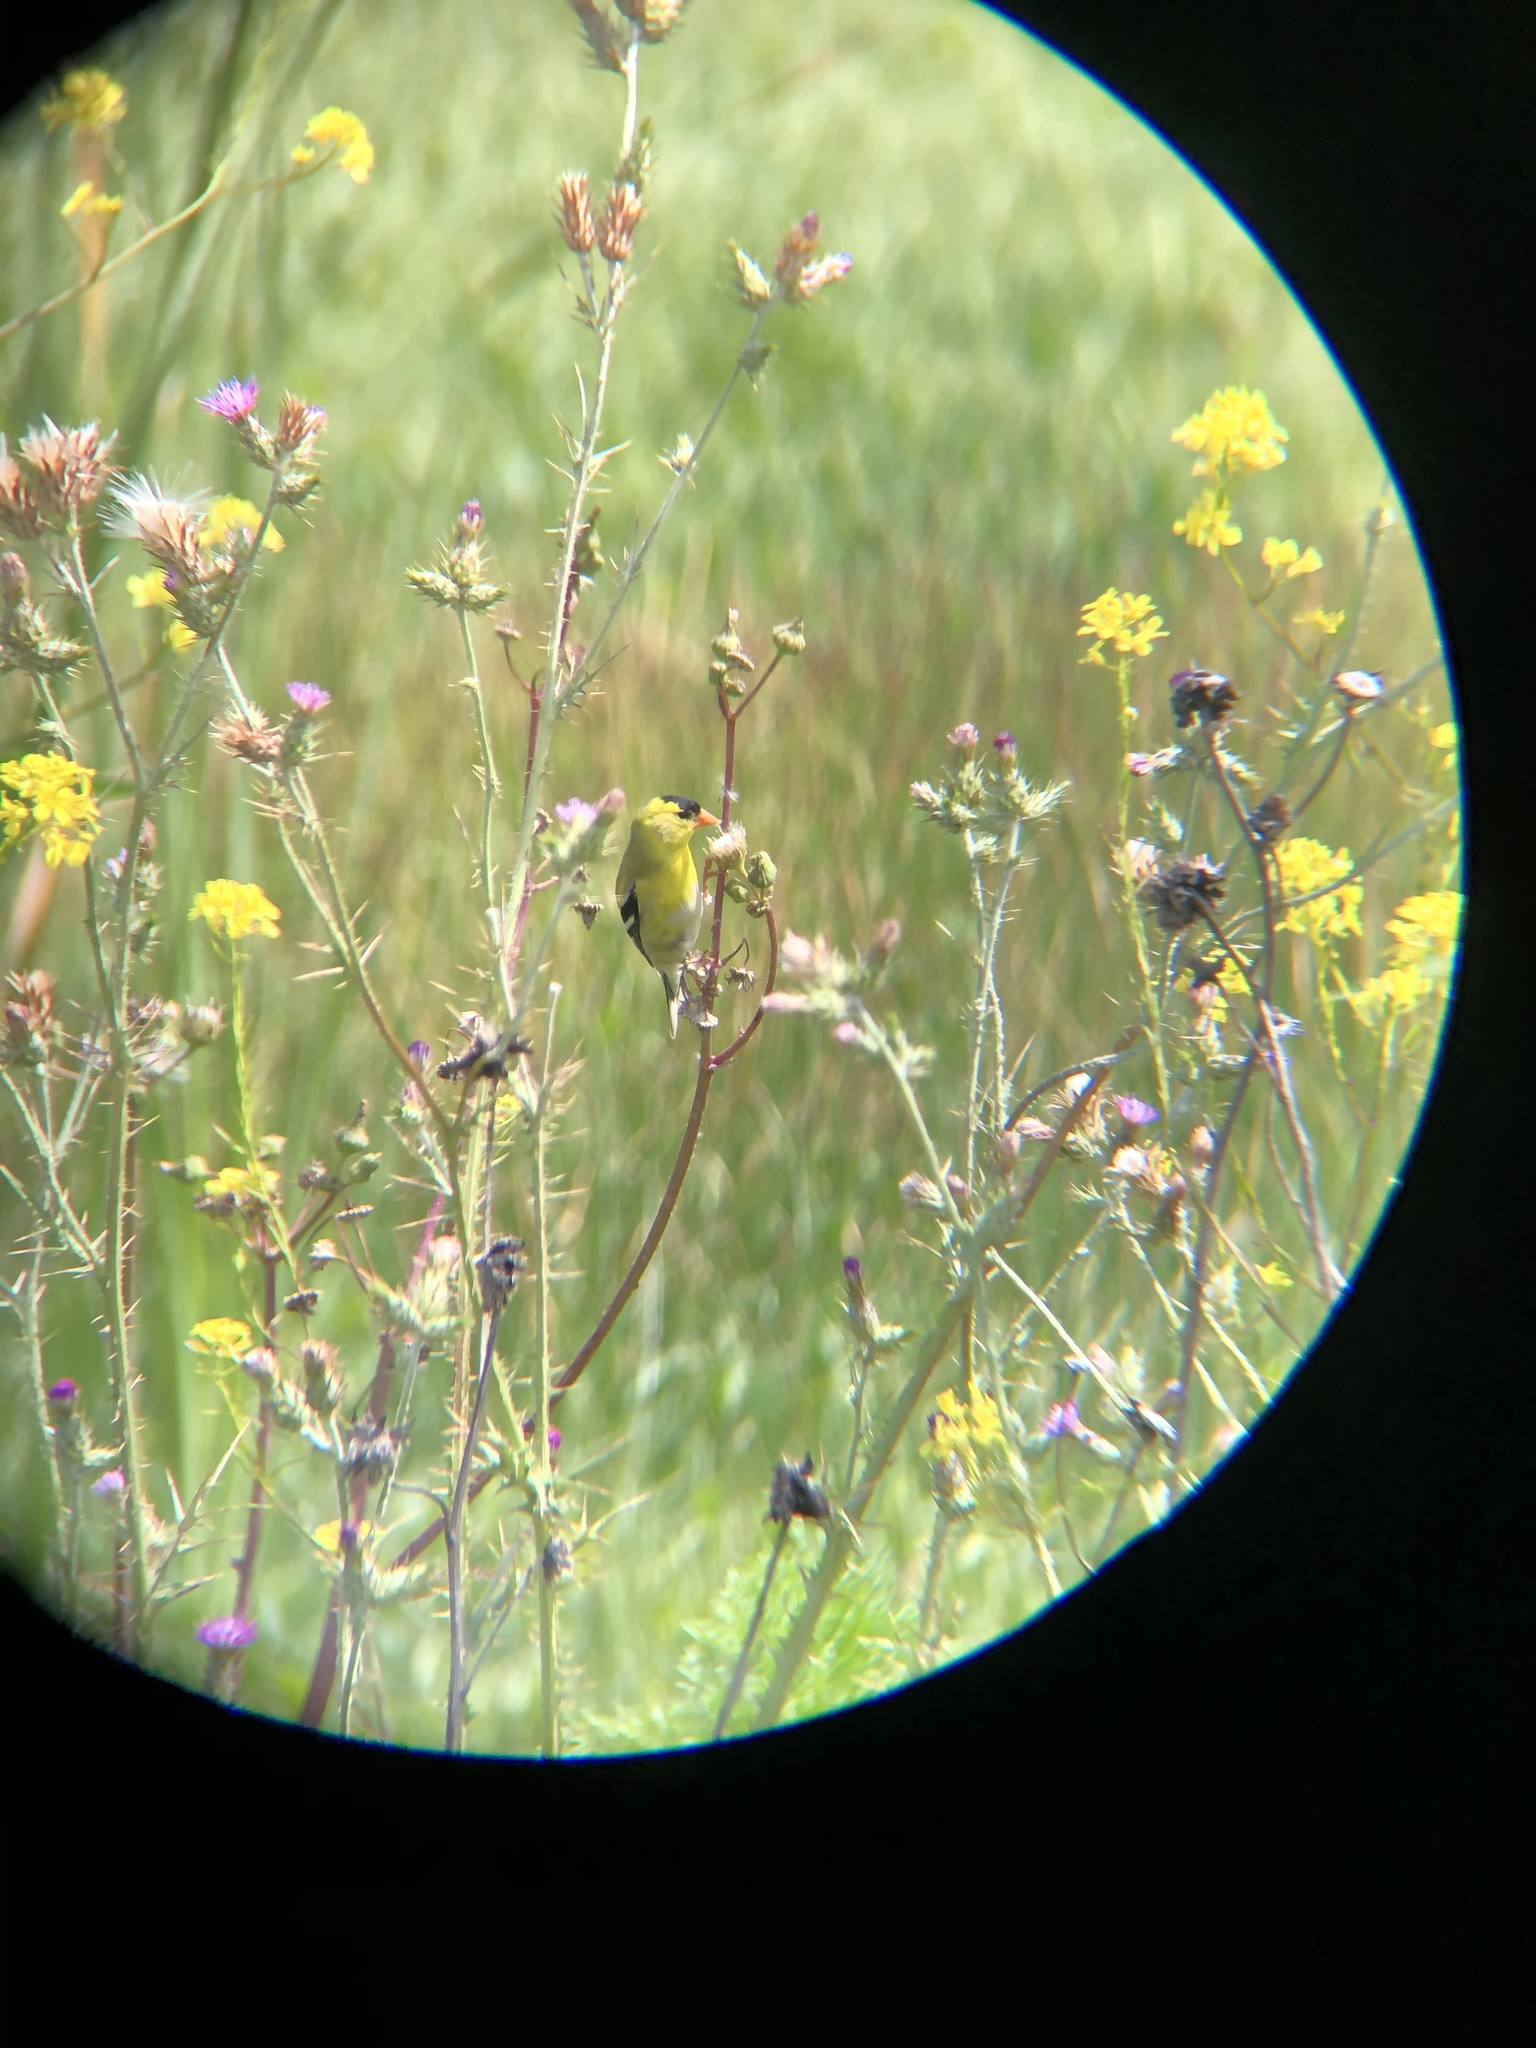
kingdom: Animalia
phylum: Chordata
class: Aves
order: Passeriformes
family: Fringillidae
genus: Spinus
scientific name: Spinus tristis
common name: American goldfinch
